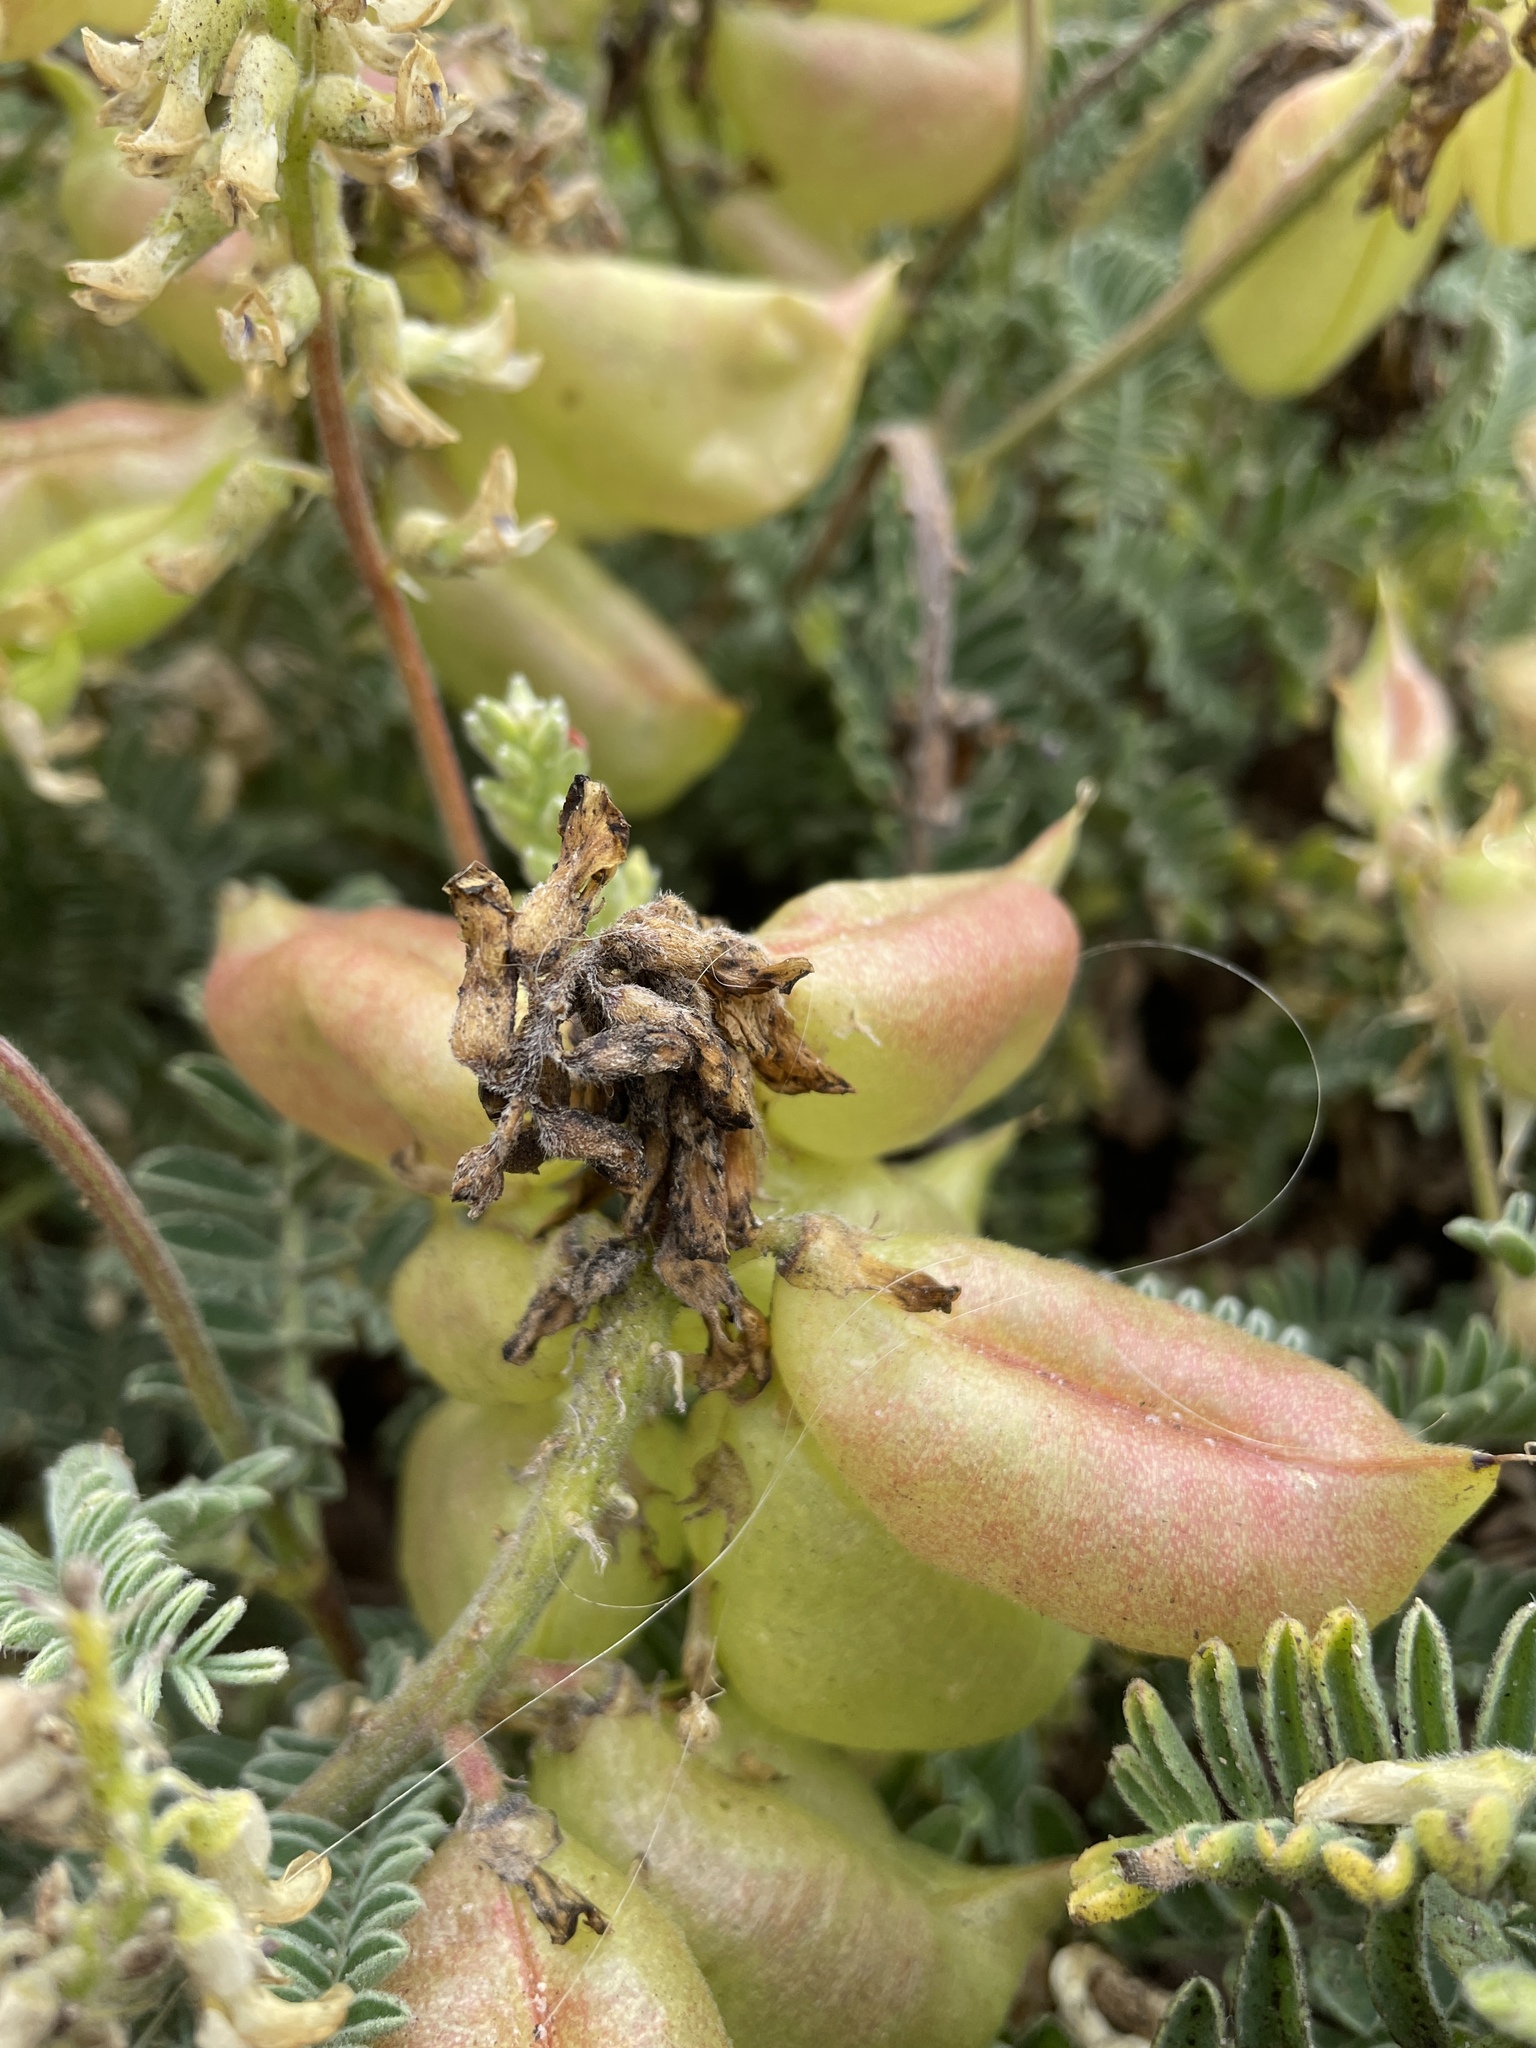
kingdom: Plantae
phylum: Tracheophyta
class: Magnoliopsida
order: Fabales
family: Fabaceae
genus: Astragalus
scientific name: Astragalus nuttallii
